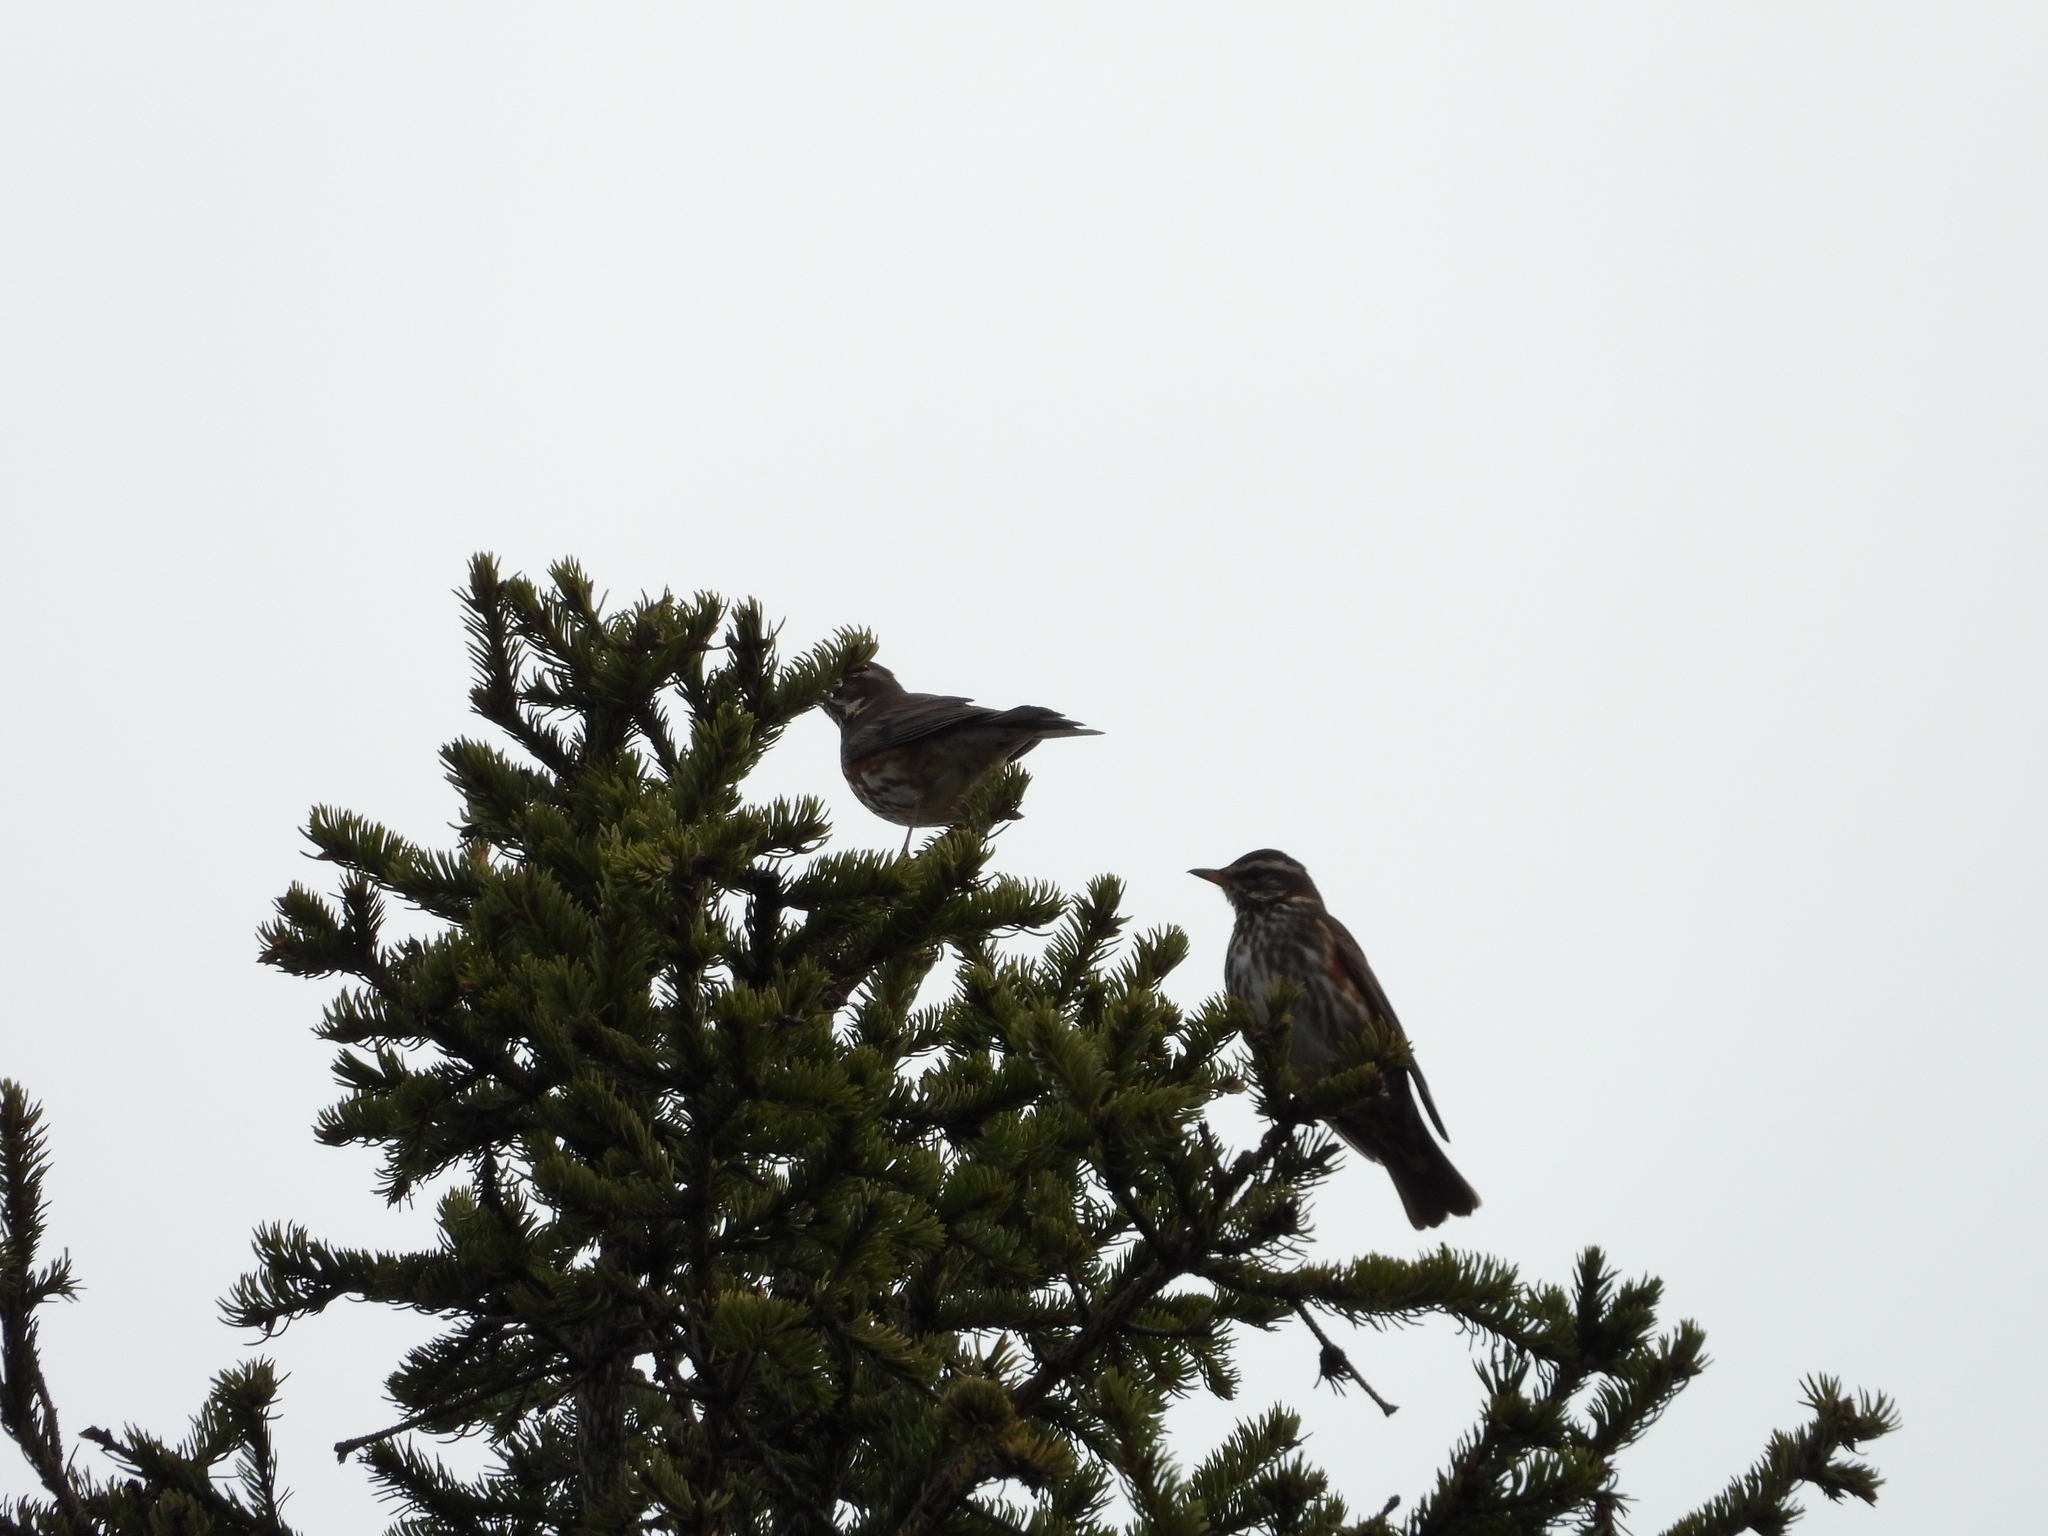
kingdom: Animalia
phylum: Chordata
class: Aves
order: Passeriformes
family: Turdidae
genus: Turdus
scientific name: Turdus iliacus
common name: Redwing
